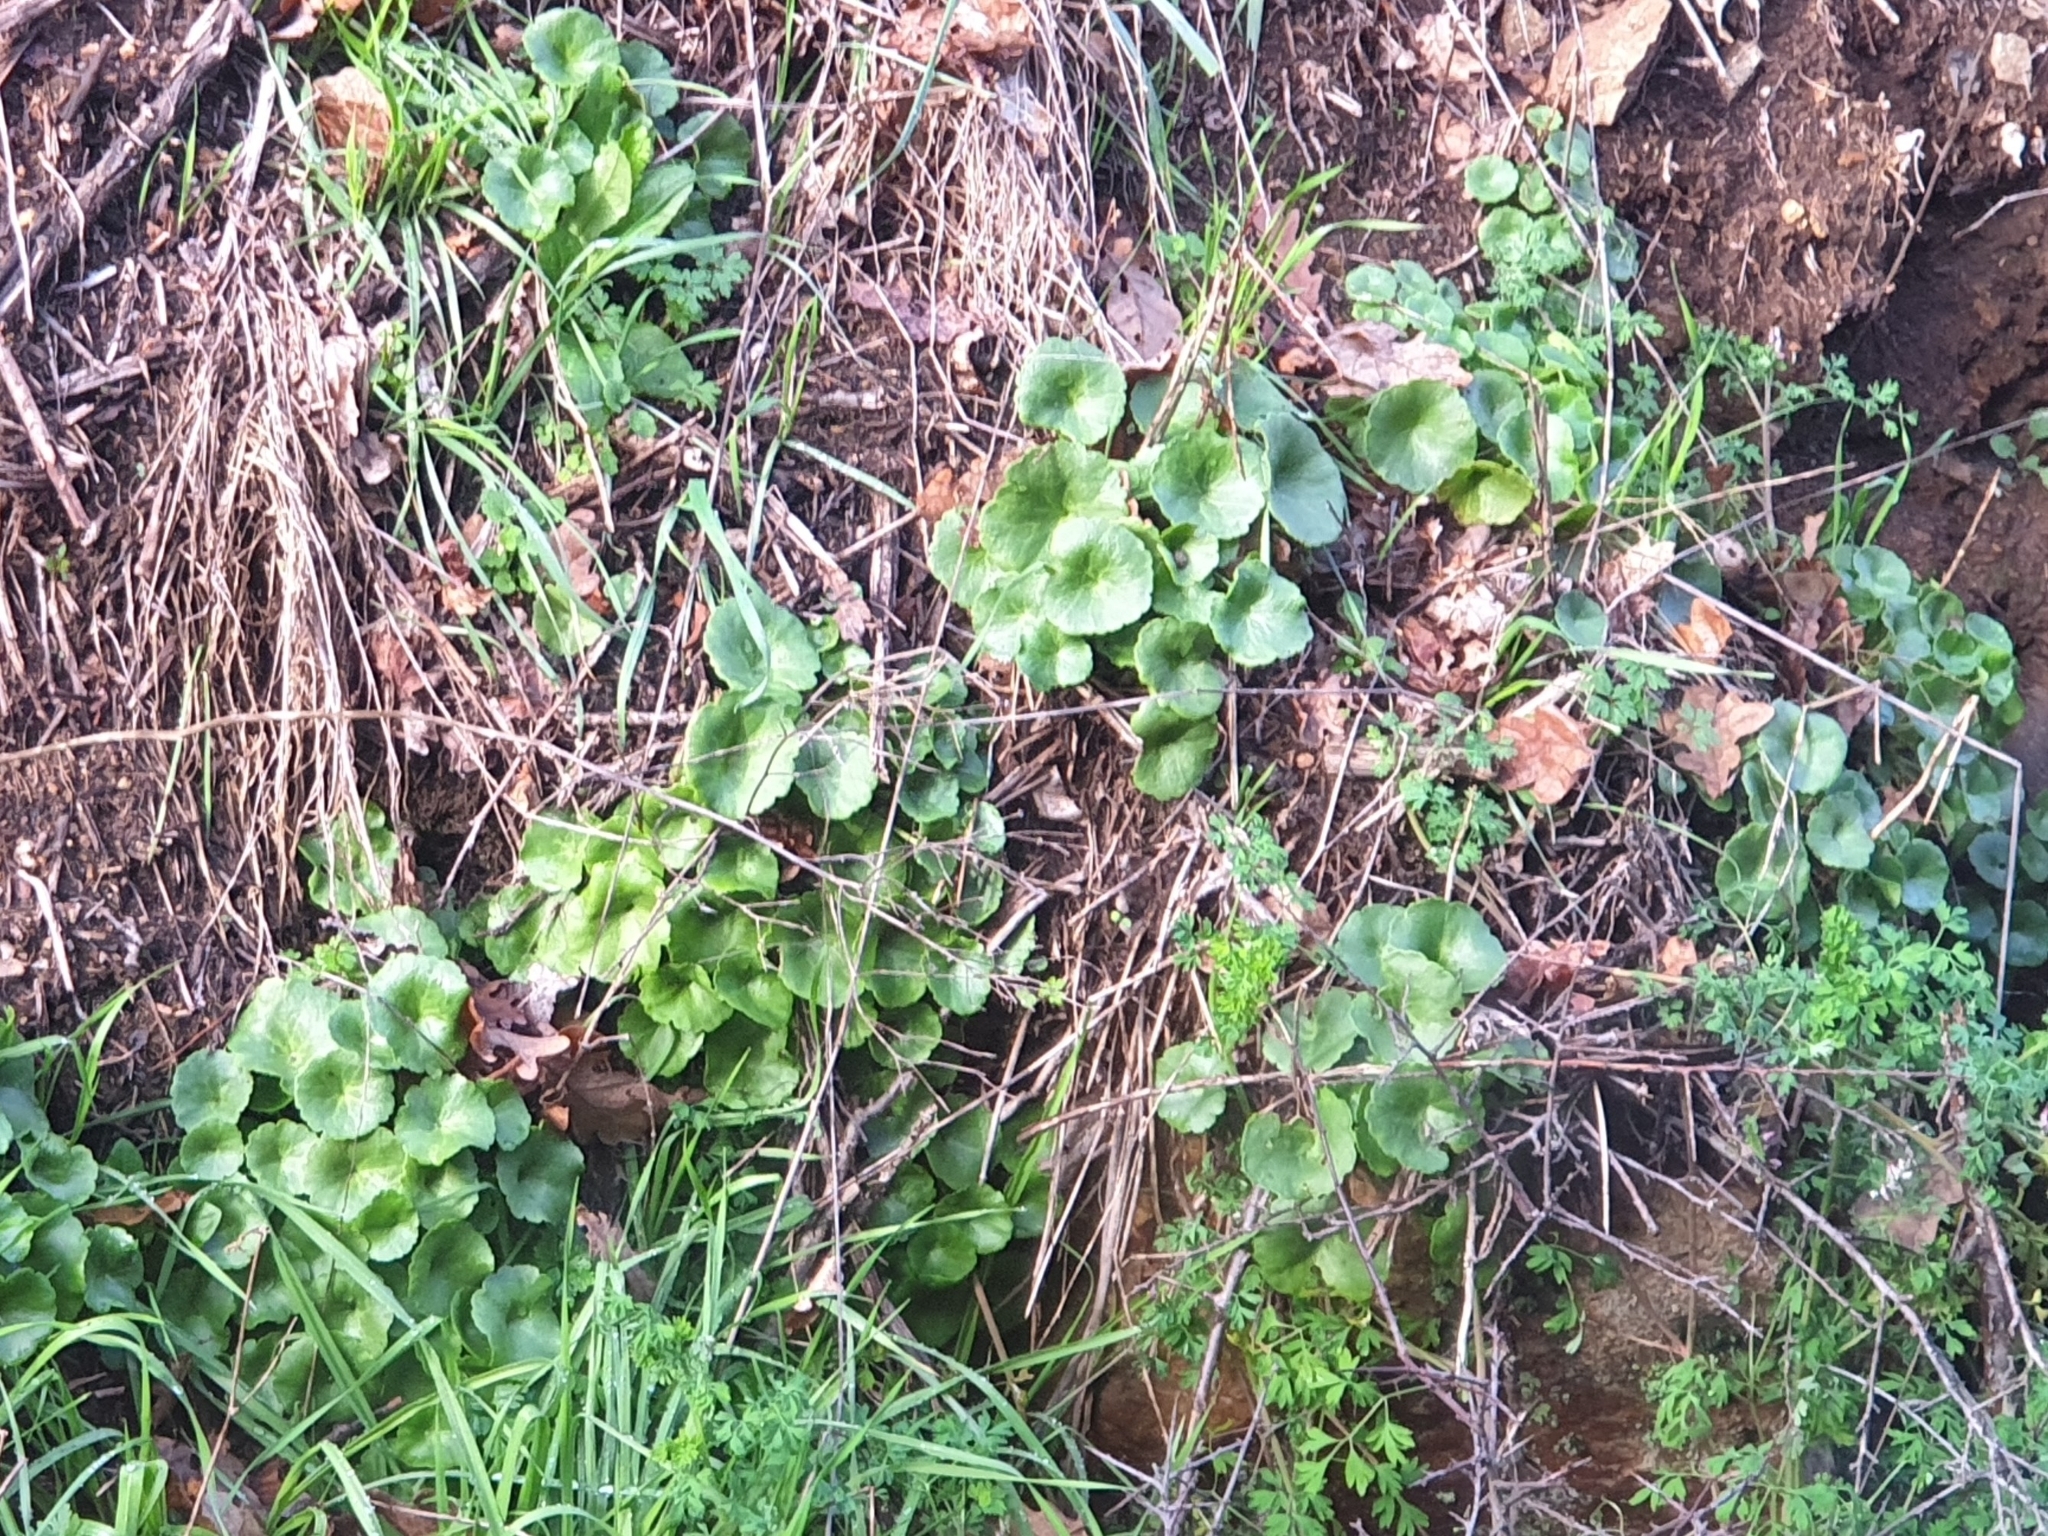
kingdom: Plantae
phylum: Tracheophyta
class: Magnoliopsida
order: Saxifragales
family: Crassulaceae
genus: Umbilicus
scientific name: Umbilicus rupestris
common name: Navelwort
